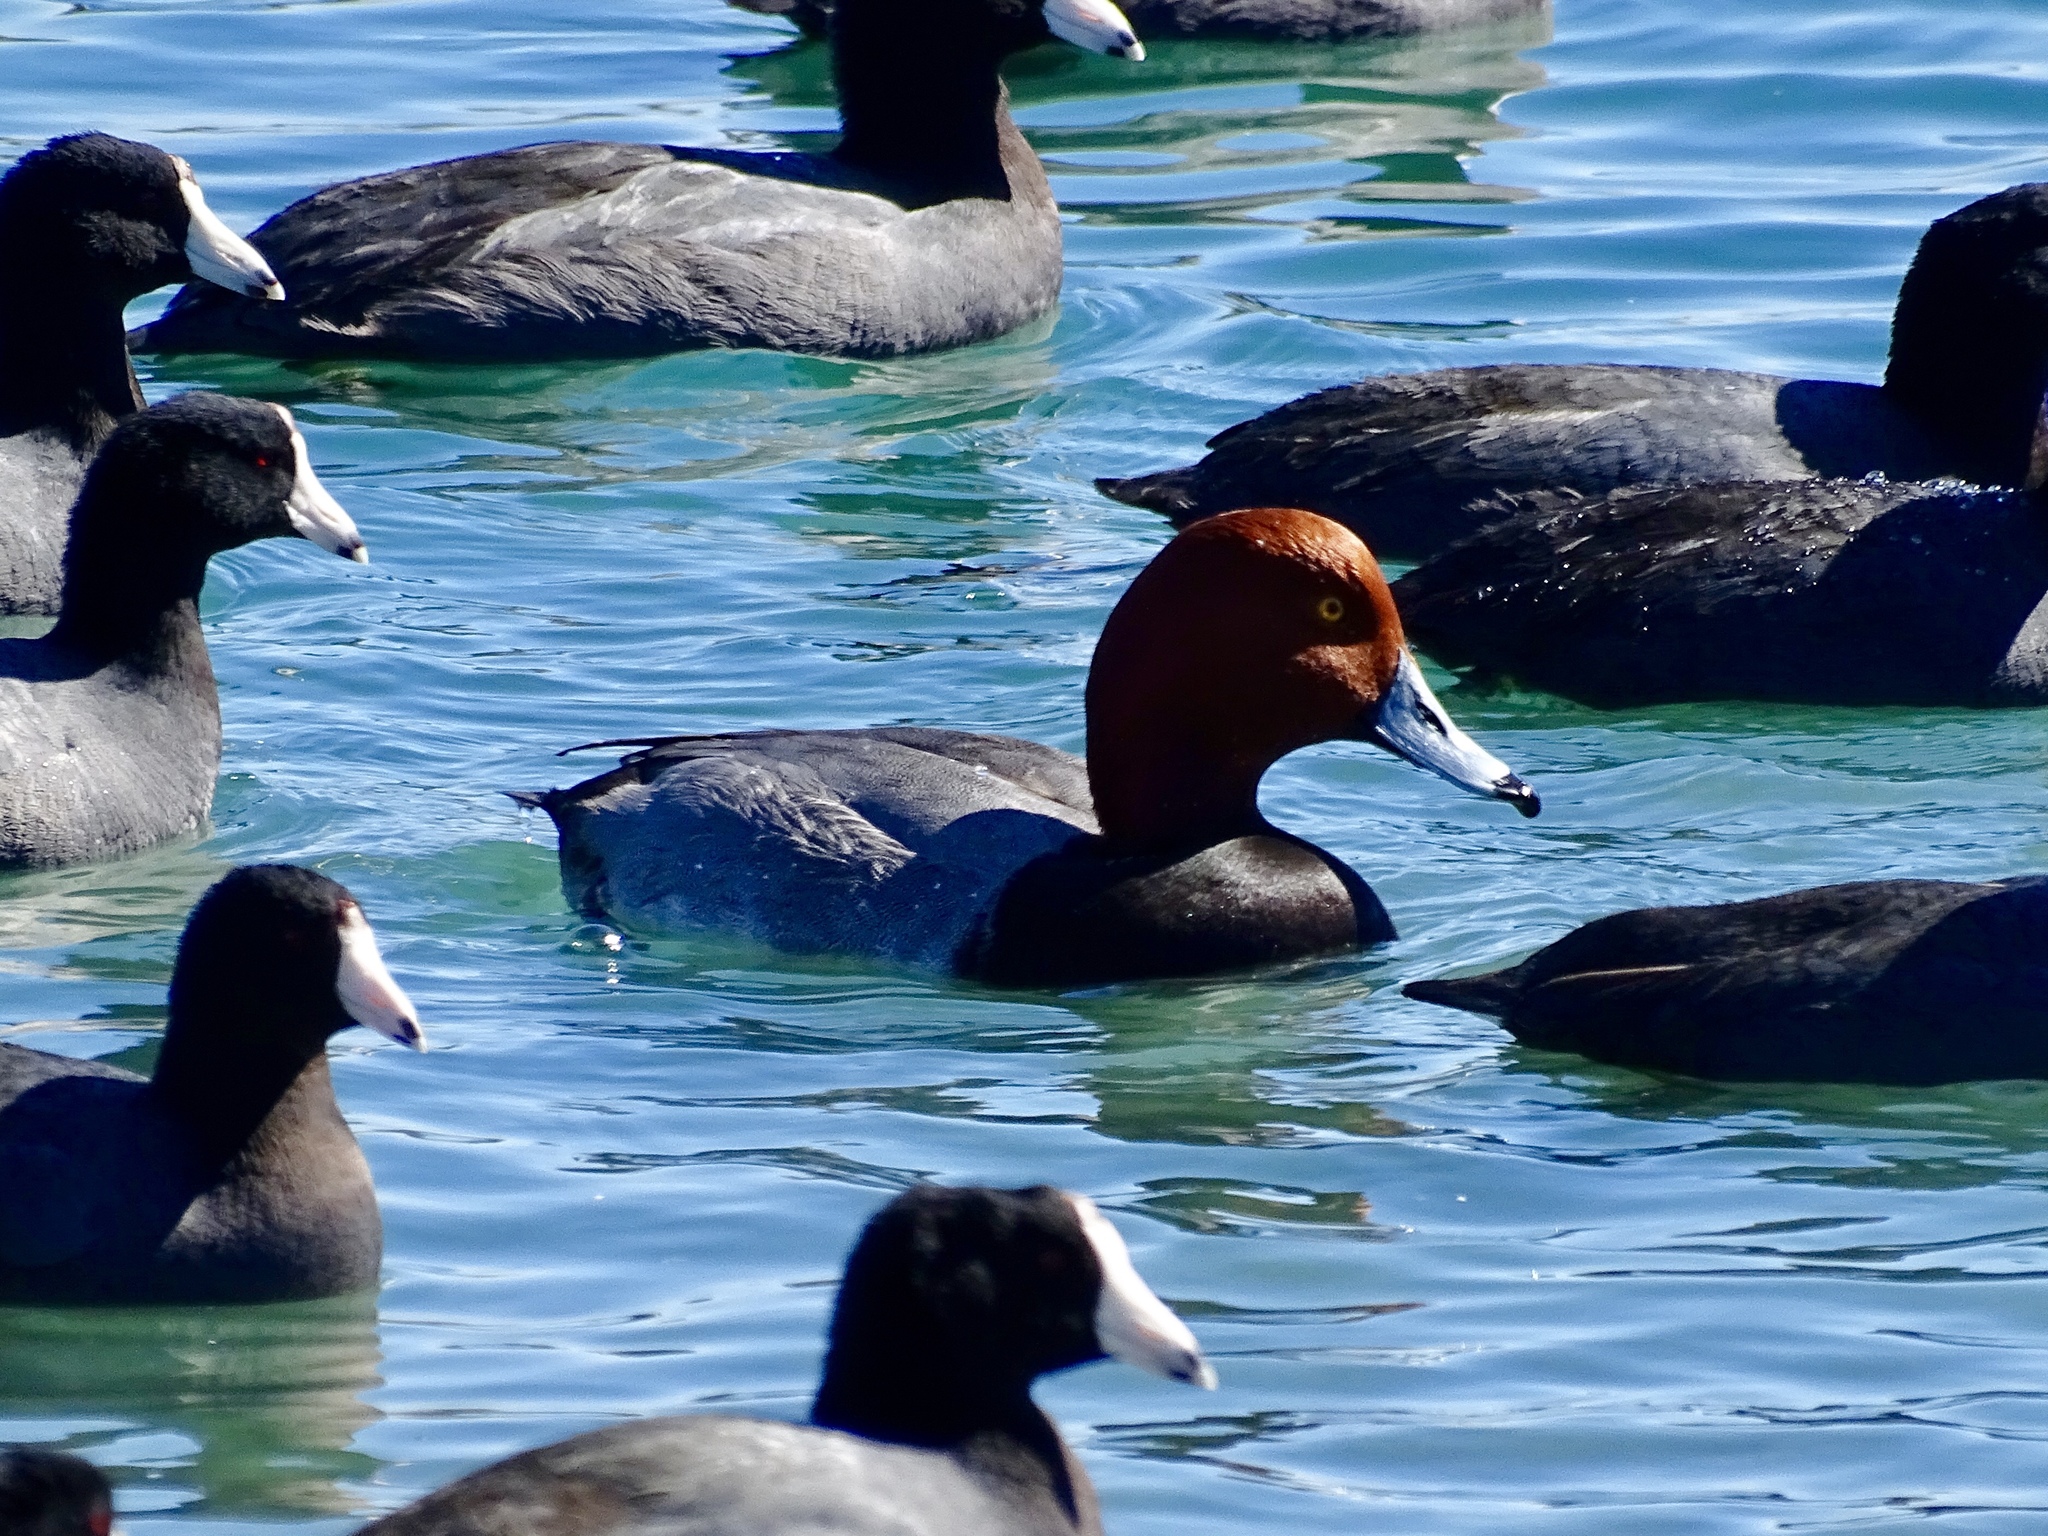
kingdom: Animalia
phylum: Chordata
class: Aves
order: Anseriformes
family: Anatidae
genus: Aythya
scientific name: Aythya americana
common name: Redhead
